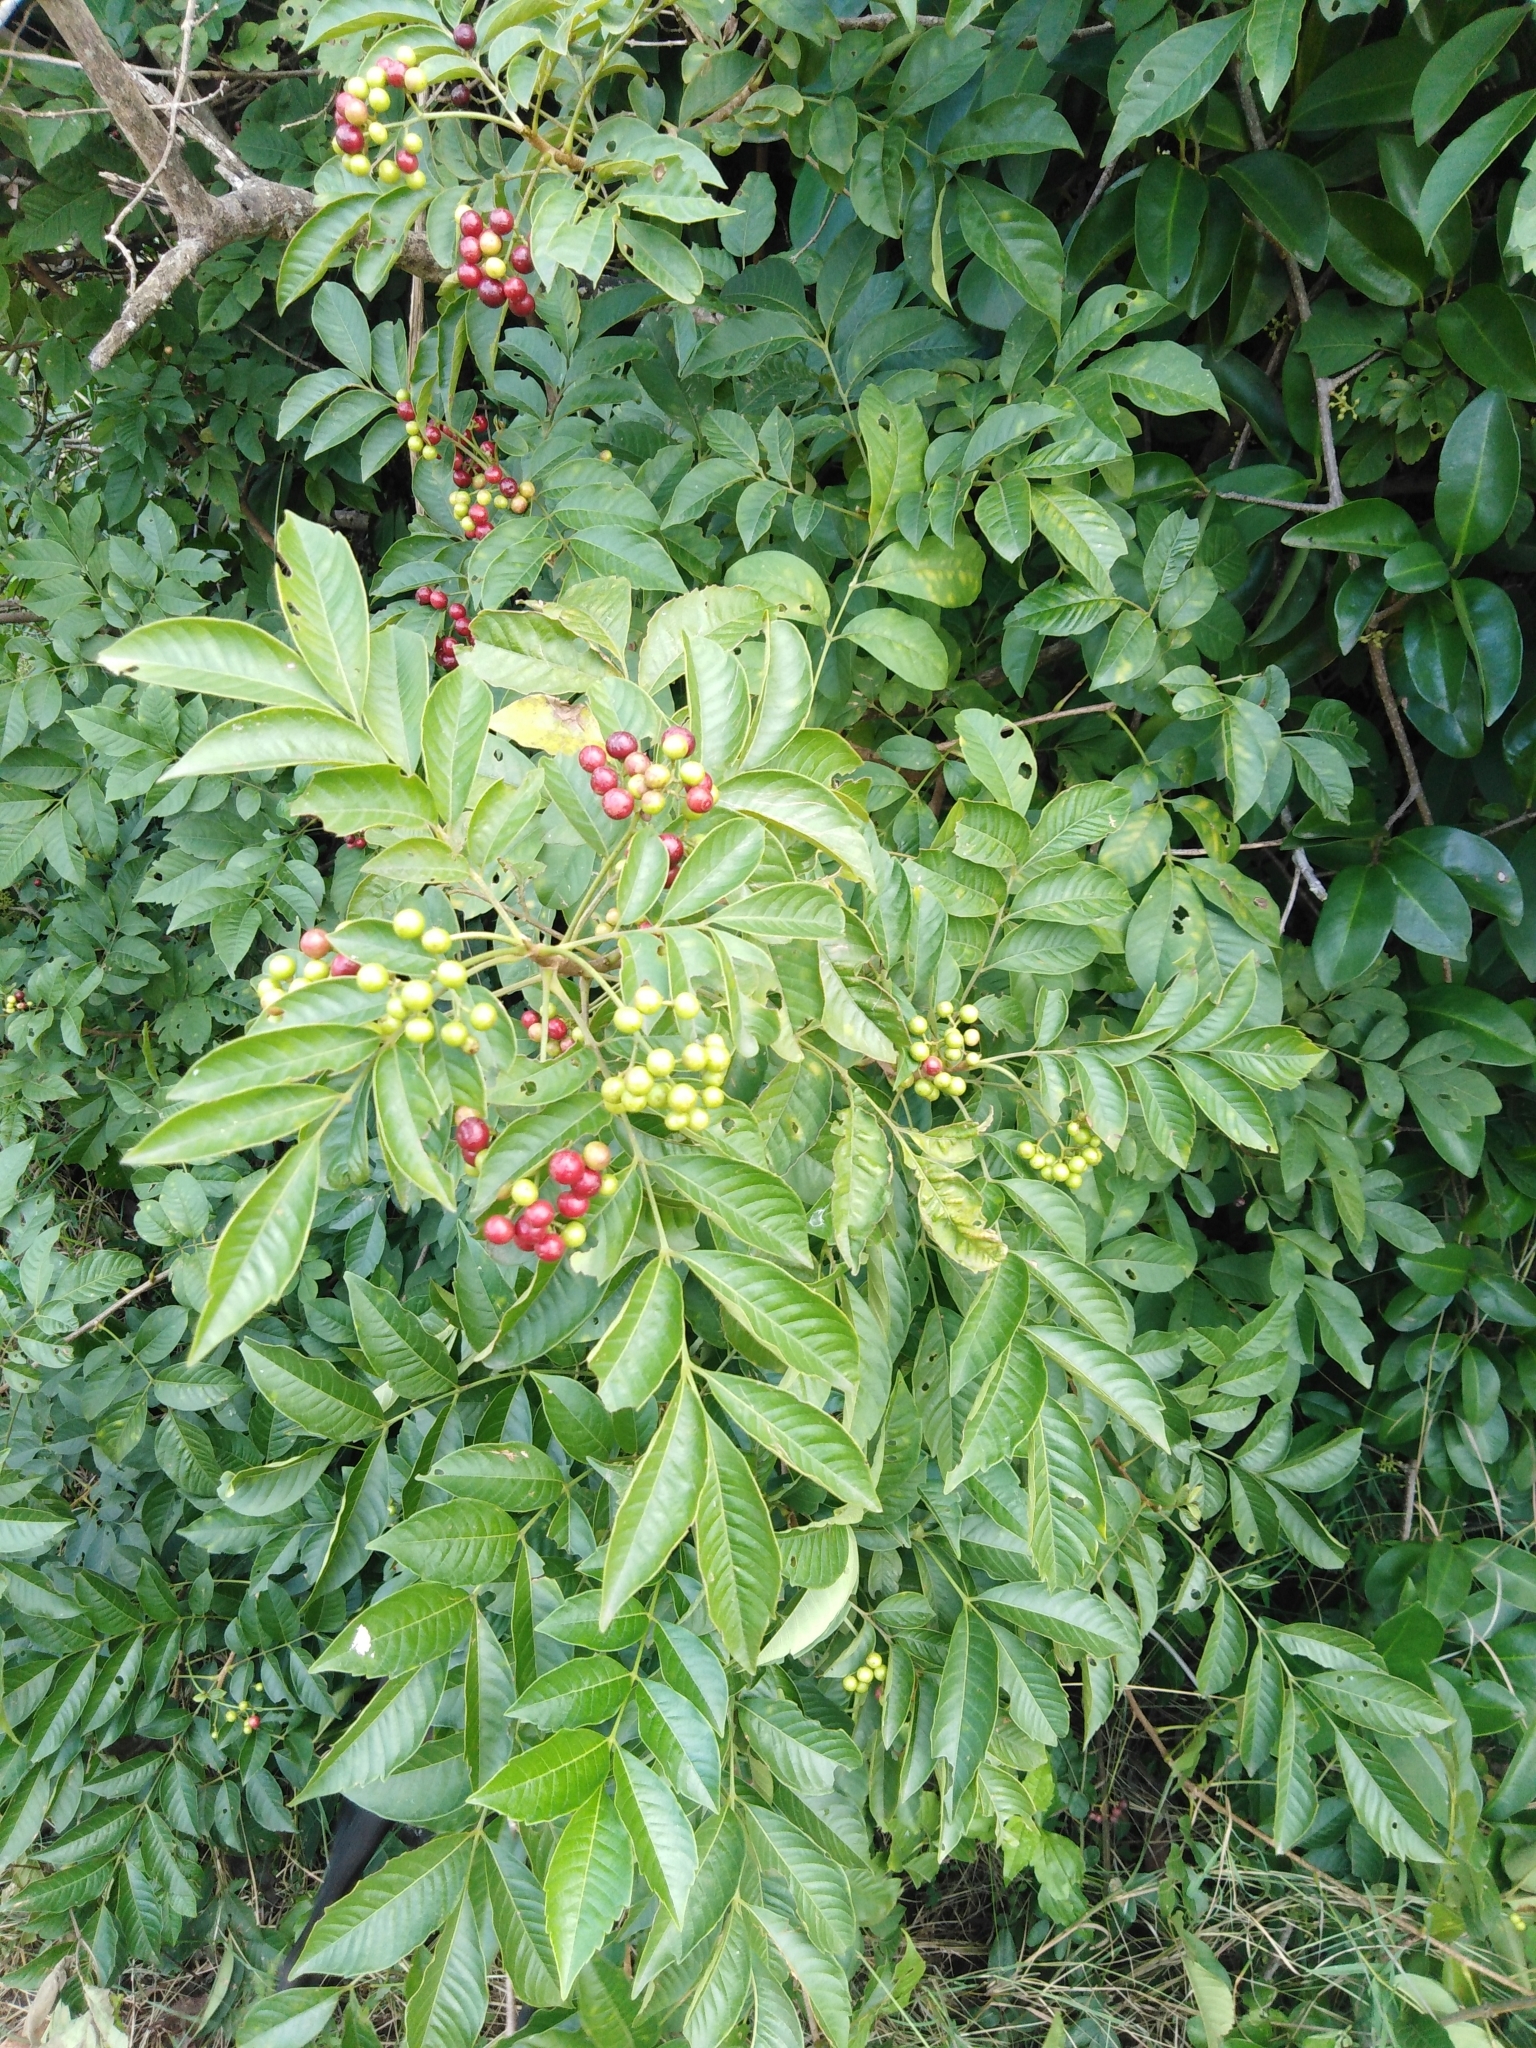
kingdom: Plantae
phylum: Tracheophyta
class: Magnoliopsida
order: Sapindales
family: Meliaceae
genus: Cipadessa
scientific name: Cipadessa baccifera
